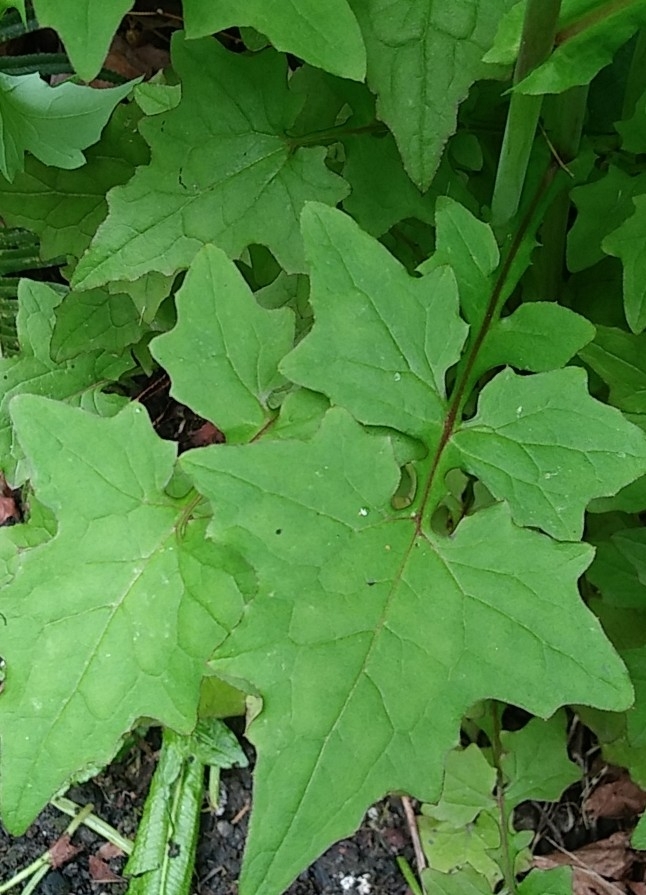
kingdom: Plantae
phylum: Tracheophyta
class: Magnoliopsida
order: Asterales
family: Asteraceae
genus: Mycelis
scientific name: Mycelis muralis
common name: Wall lettuce
